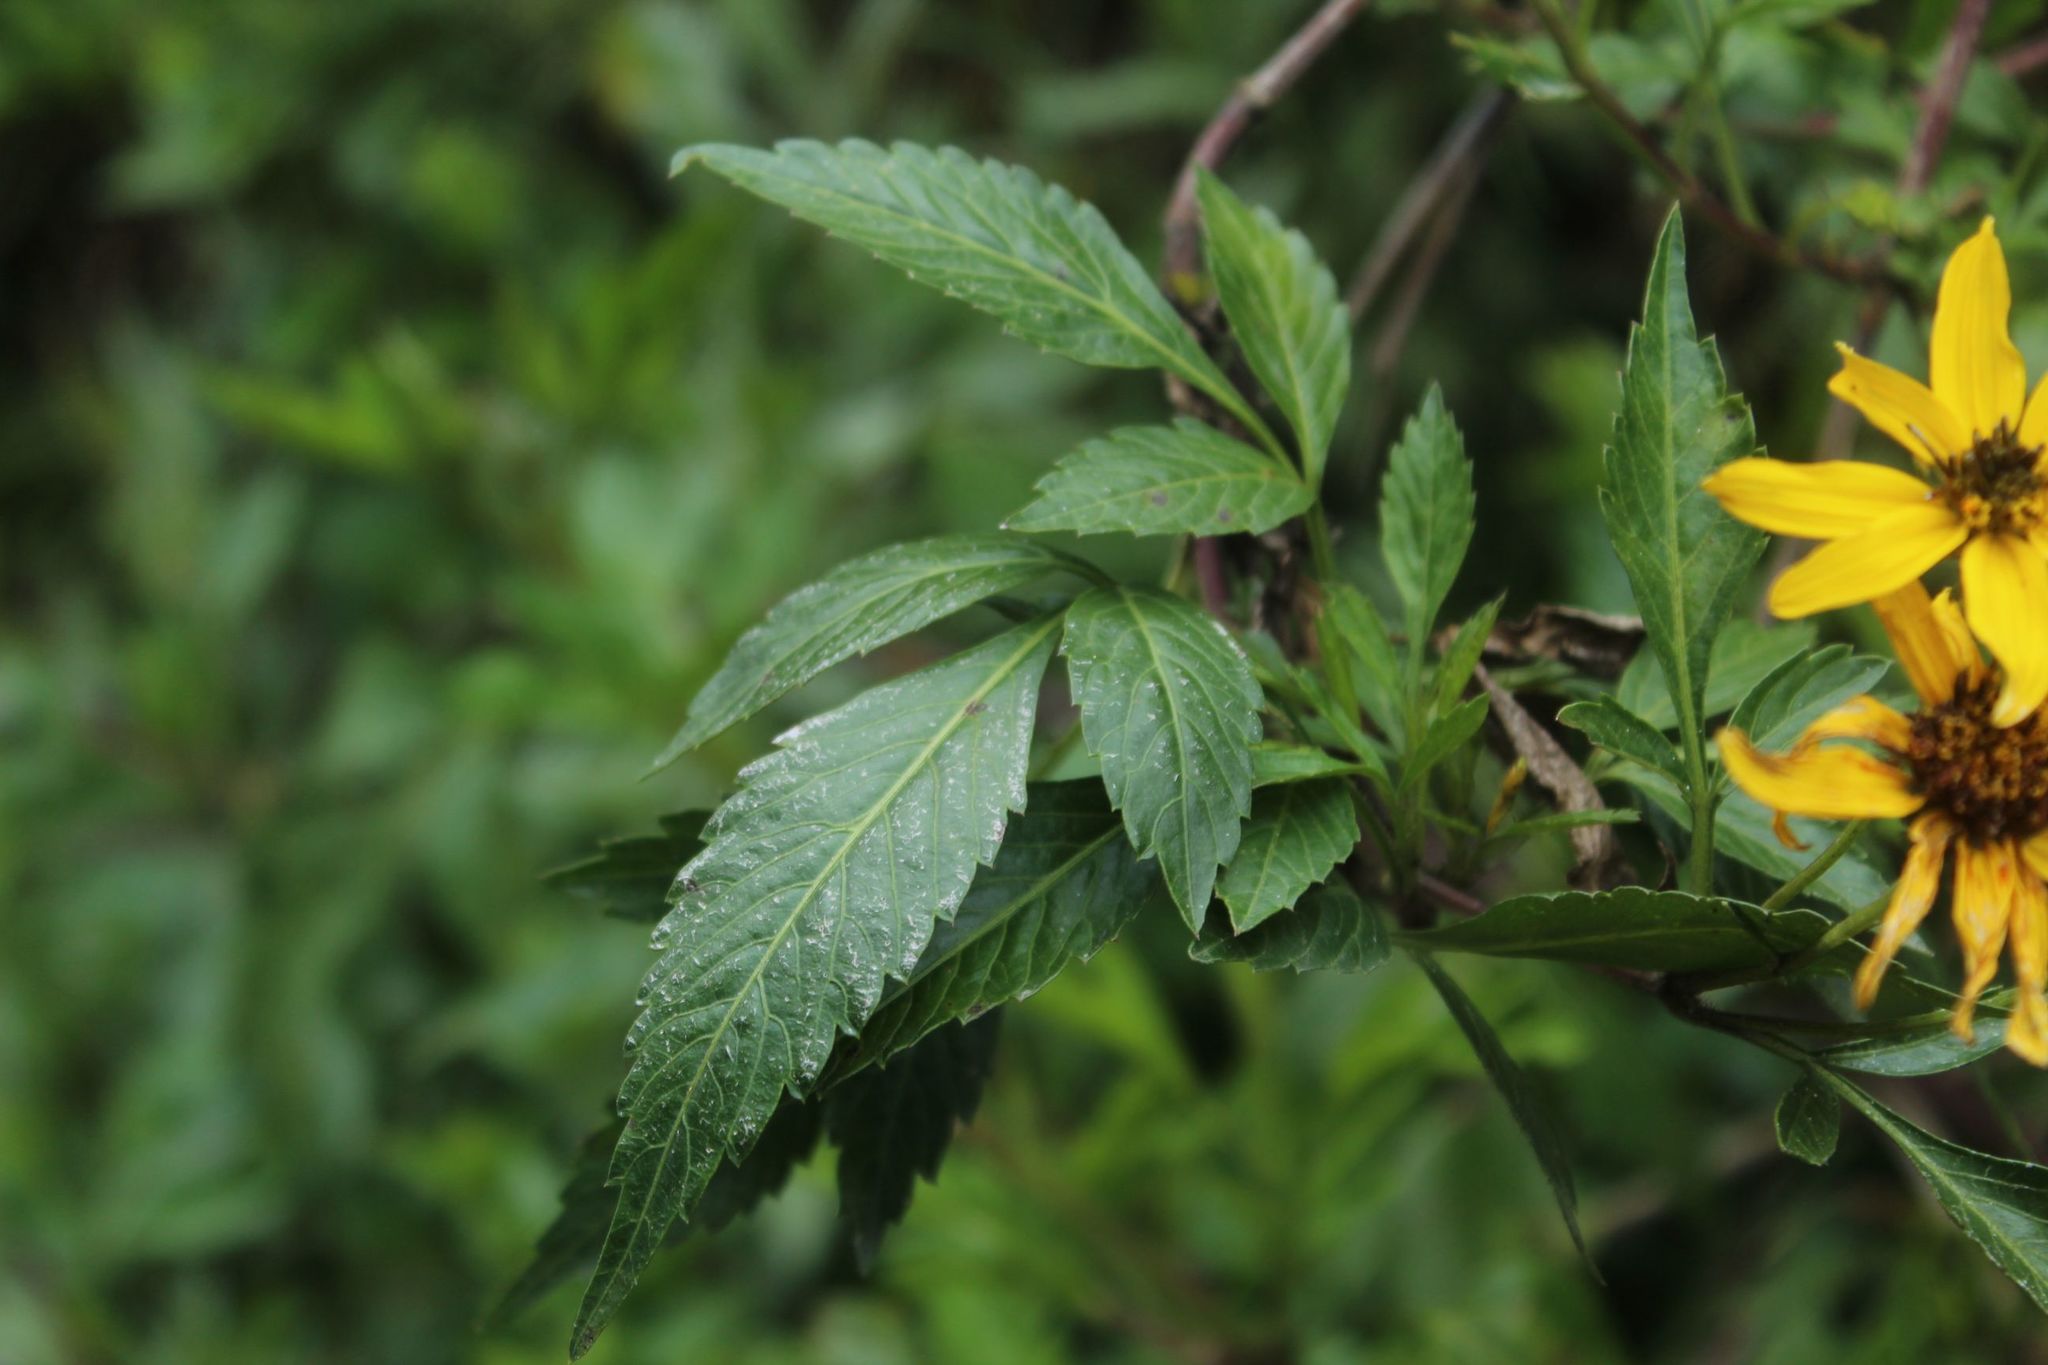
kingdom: Plantae
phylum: Tracheophyta
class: Magnoliopsida
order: Asterales
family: Asteraceae
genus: Bidens
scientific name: Bidens rubifolia
